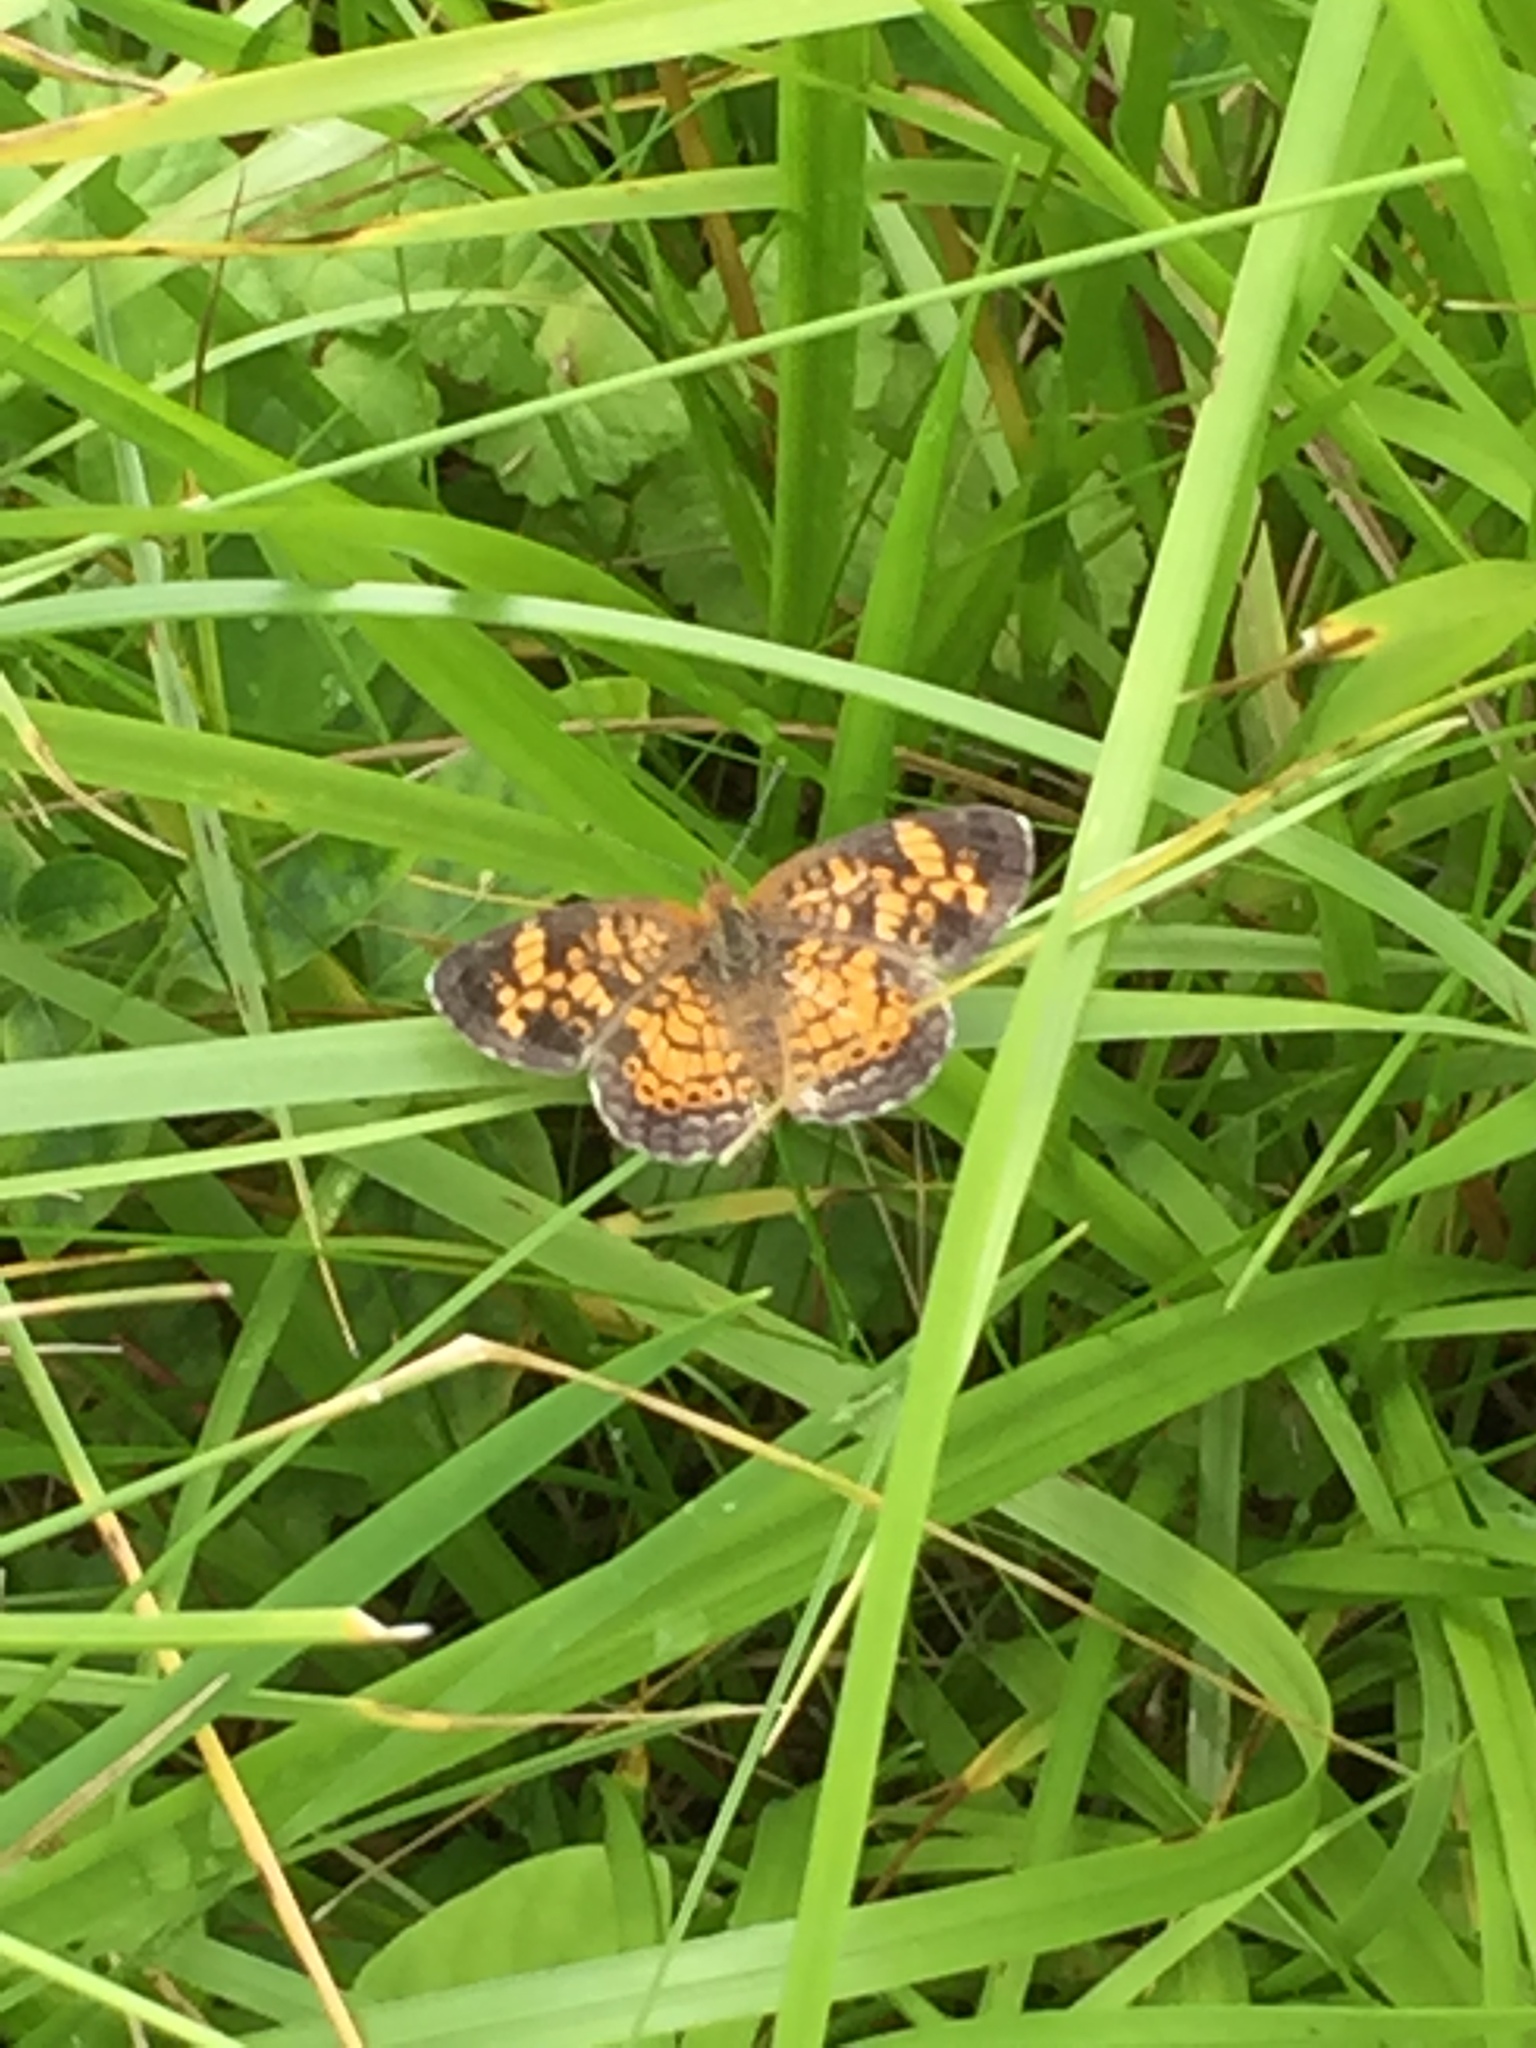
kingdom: Animalia
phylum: Arthropoda
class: Insecta
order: Lepidoptera
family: Nymphalidae
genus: Phyciodes
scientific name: Phyciodes tharos
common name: Pearl crescent
